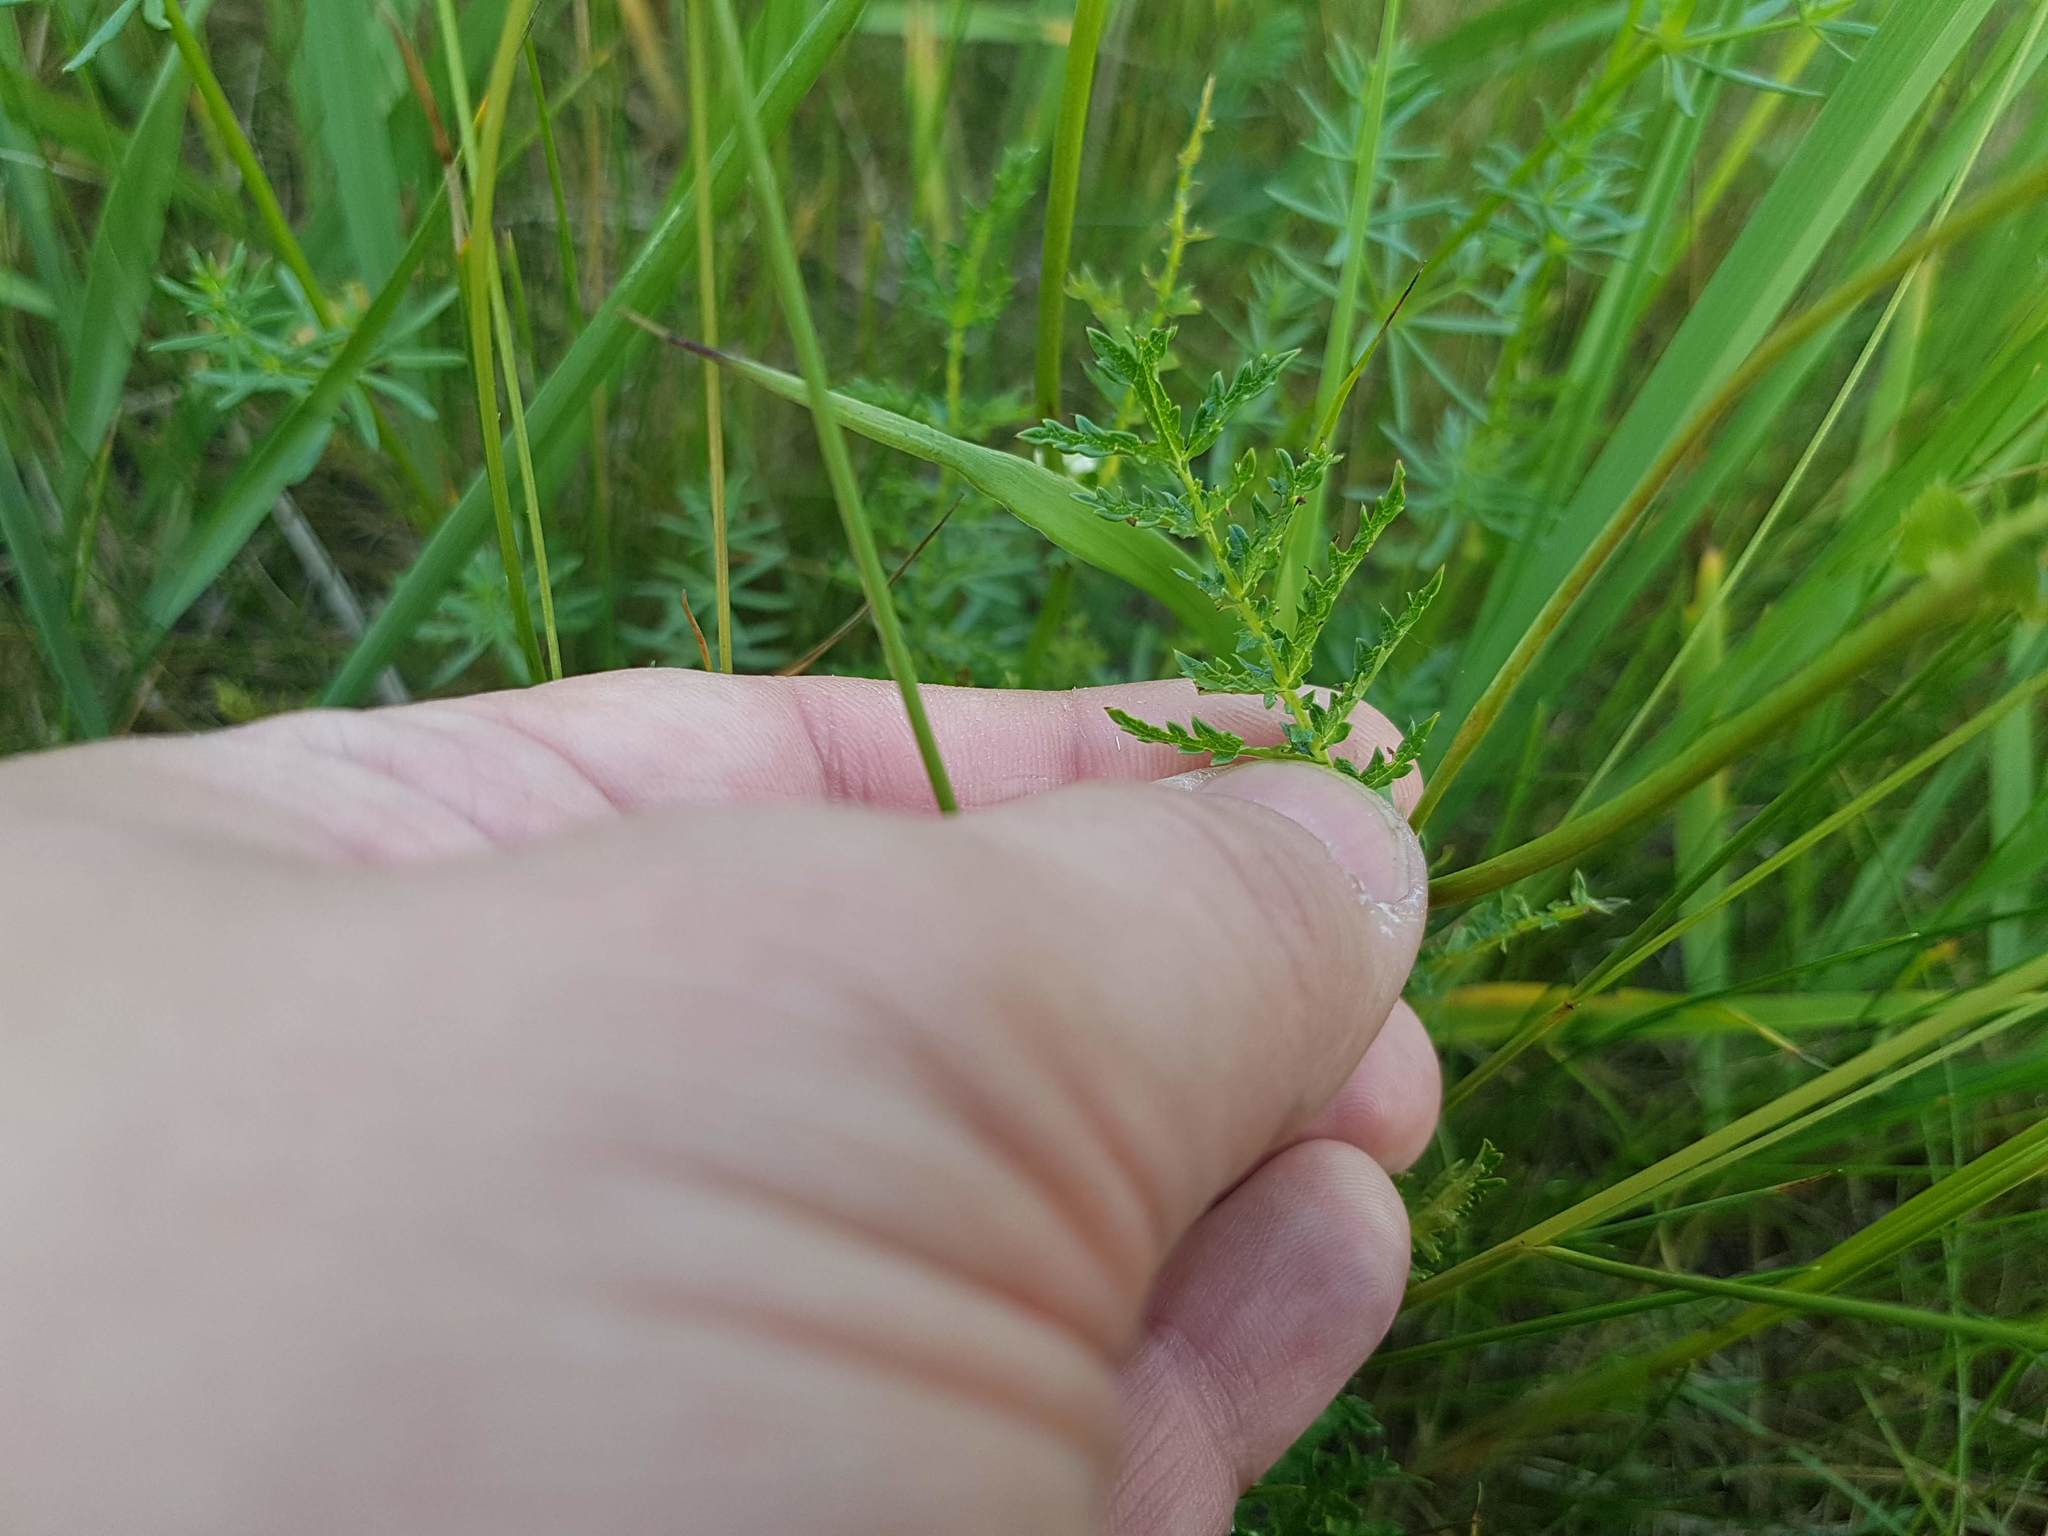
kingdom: Plantae
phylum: Tracheophyta
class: Magnoliopsida
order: Rosales
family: Rosaceae
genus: Filipendula
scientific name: Filipendula vulgaris
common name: Dropwort
